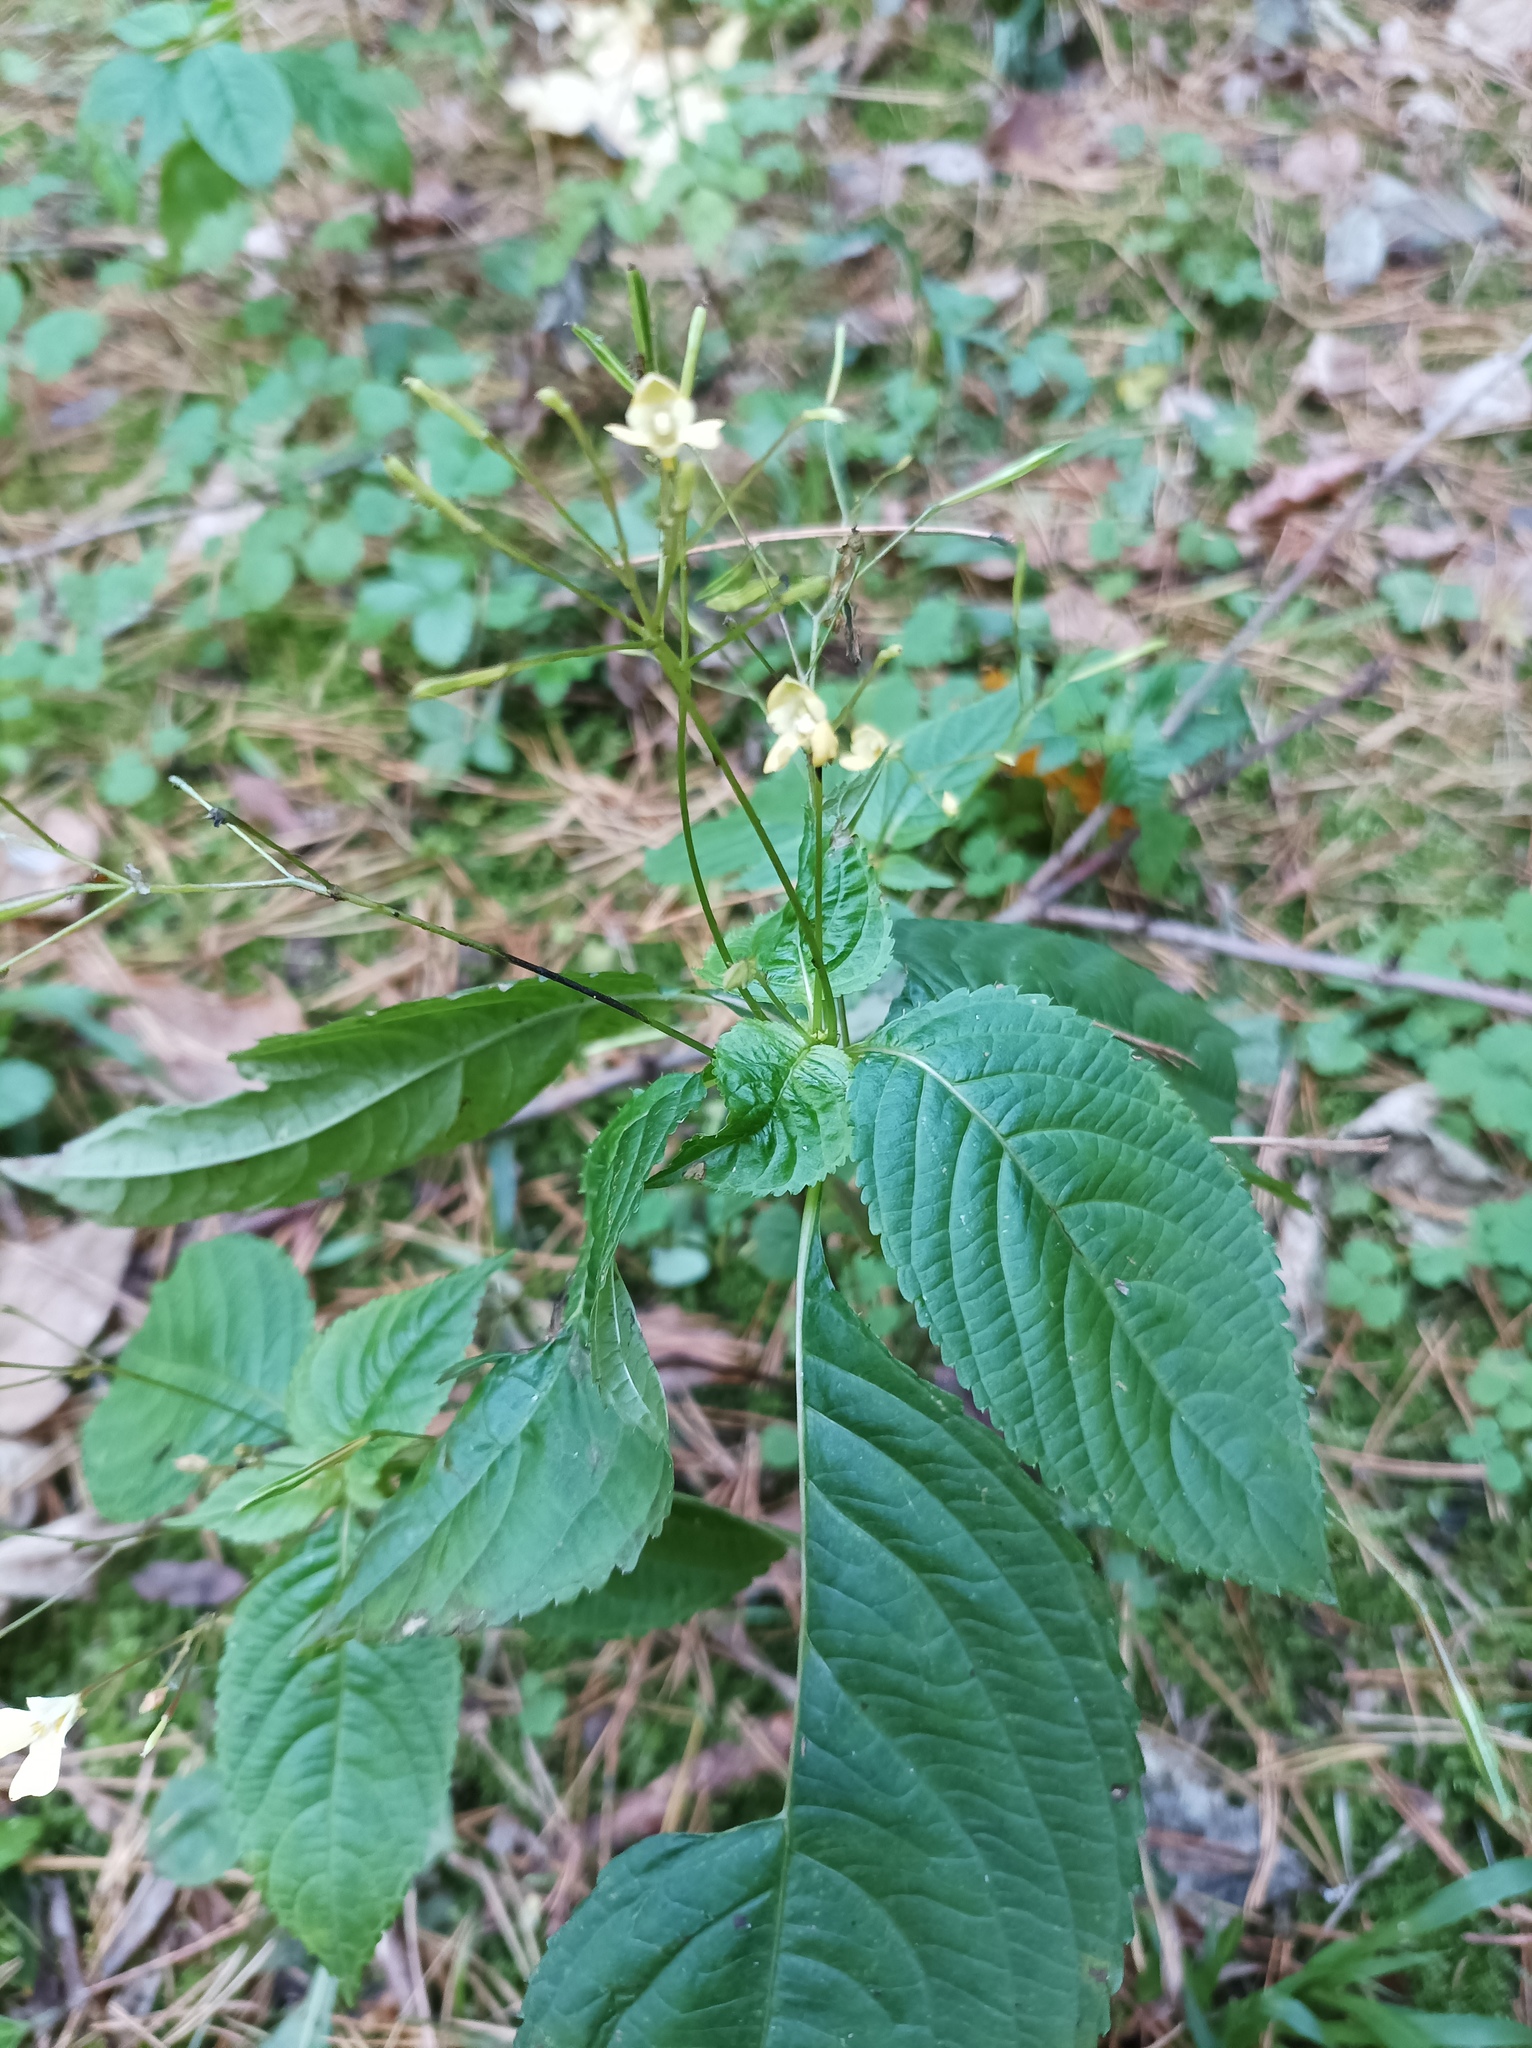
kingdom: Plantae
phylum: Tracheophyta
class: Magnoliopsida
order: Ericales
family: Balsaminaceae
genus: Impatiens
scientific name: Impatiens parviflora
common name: Small balsam
